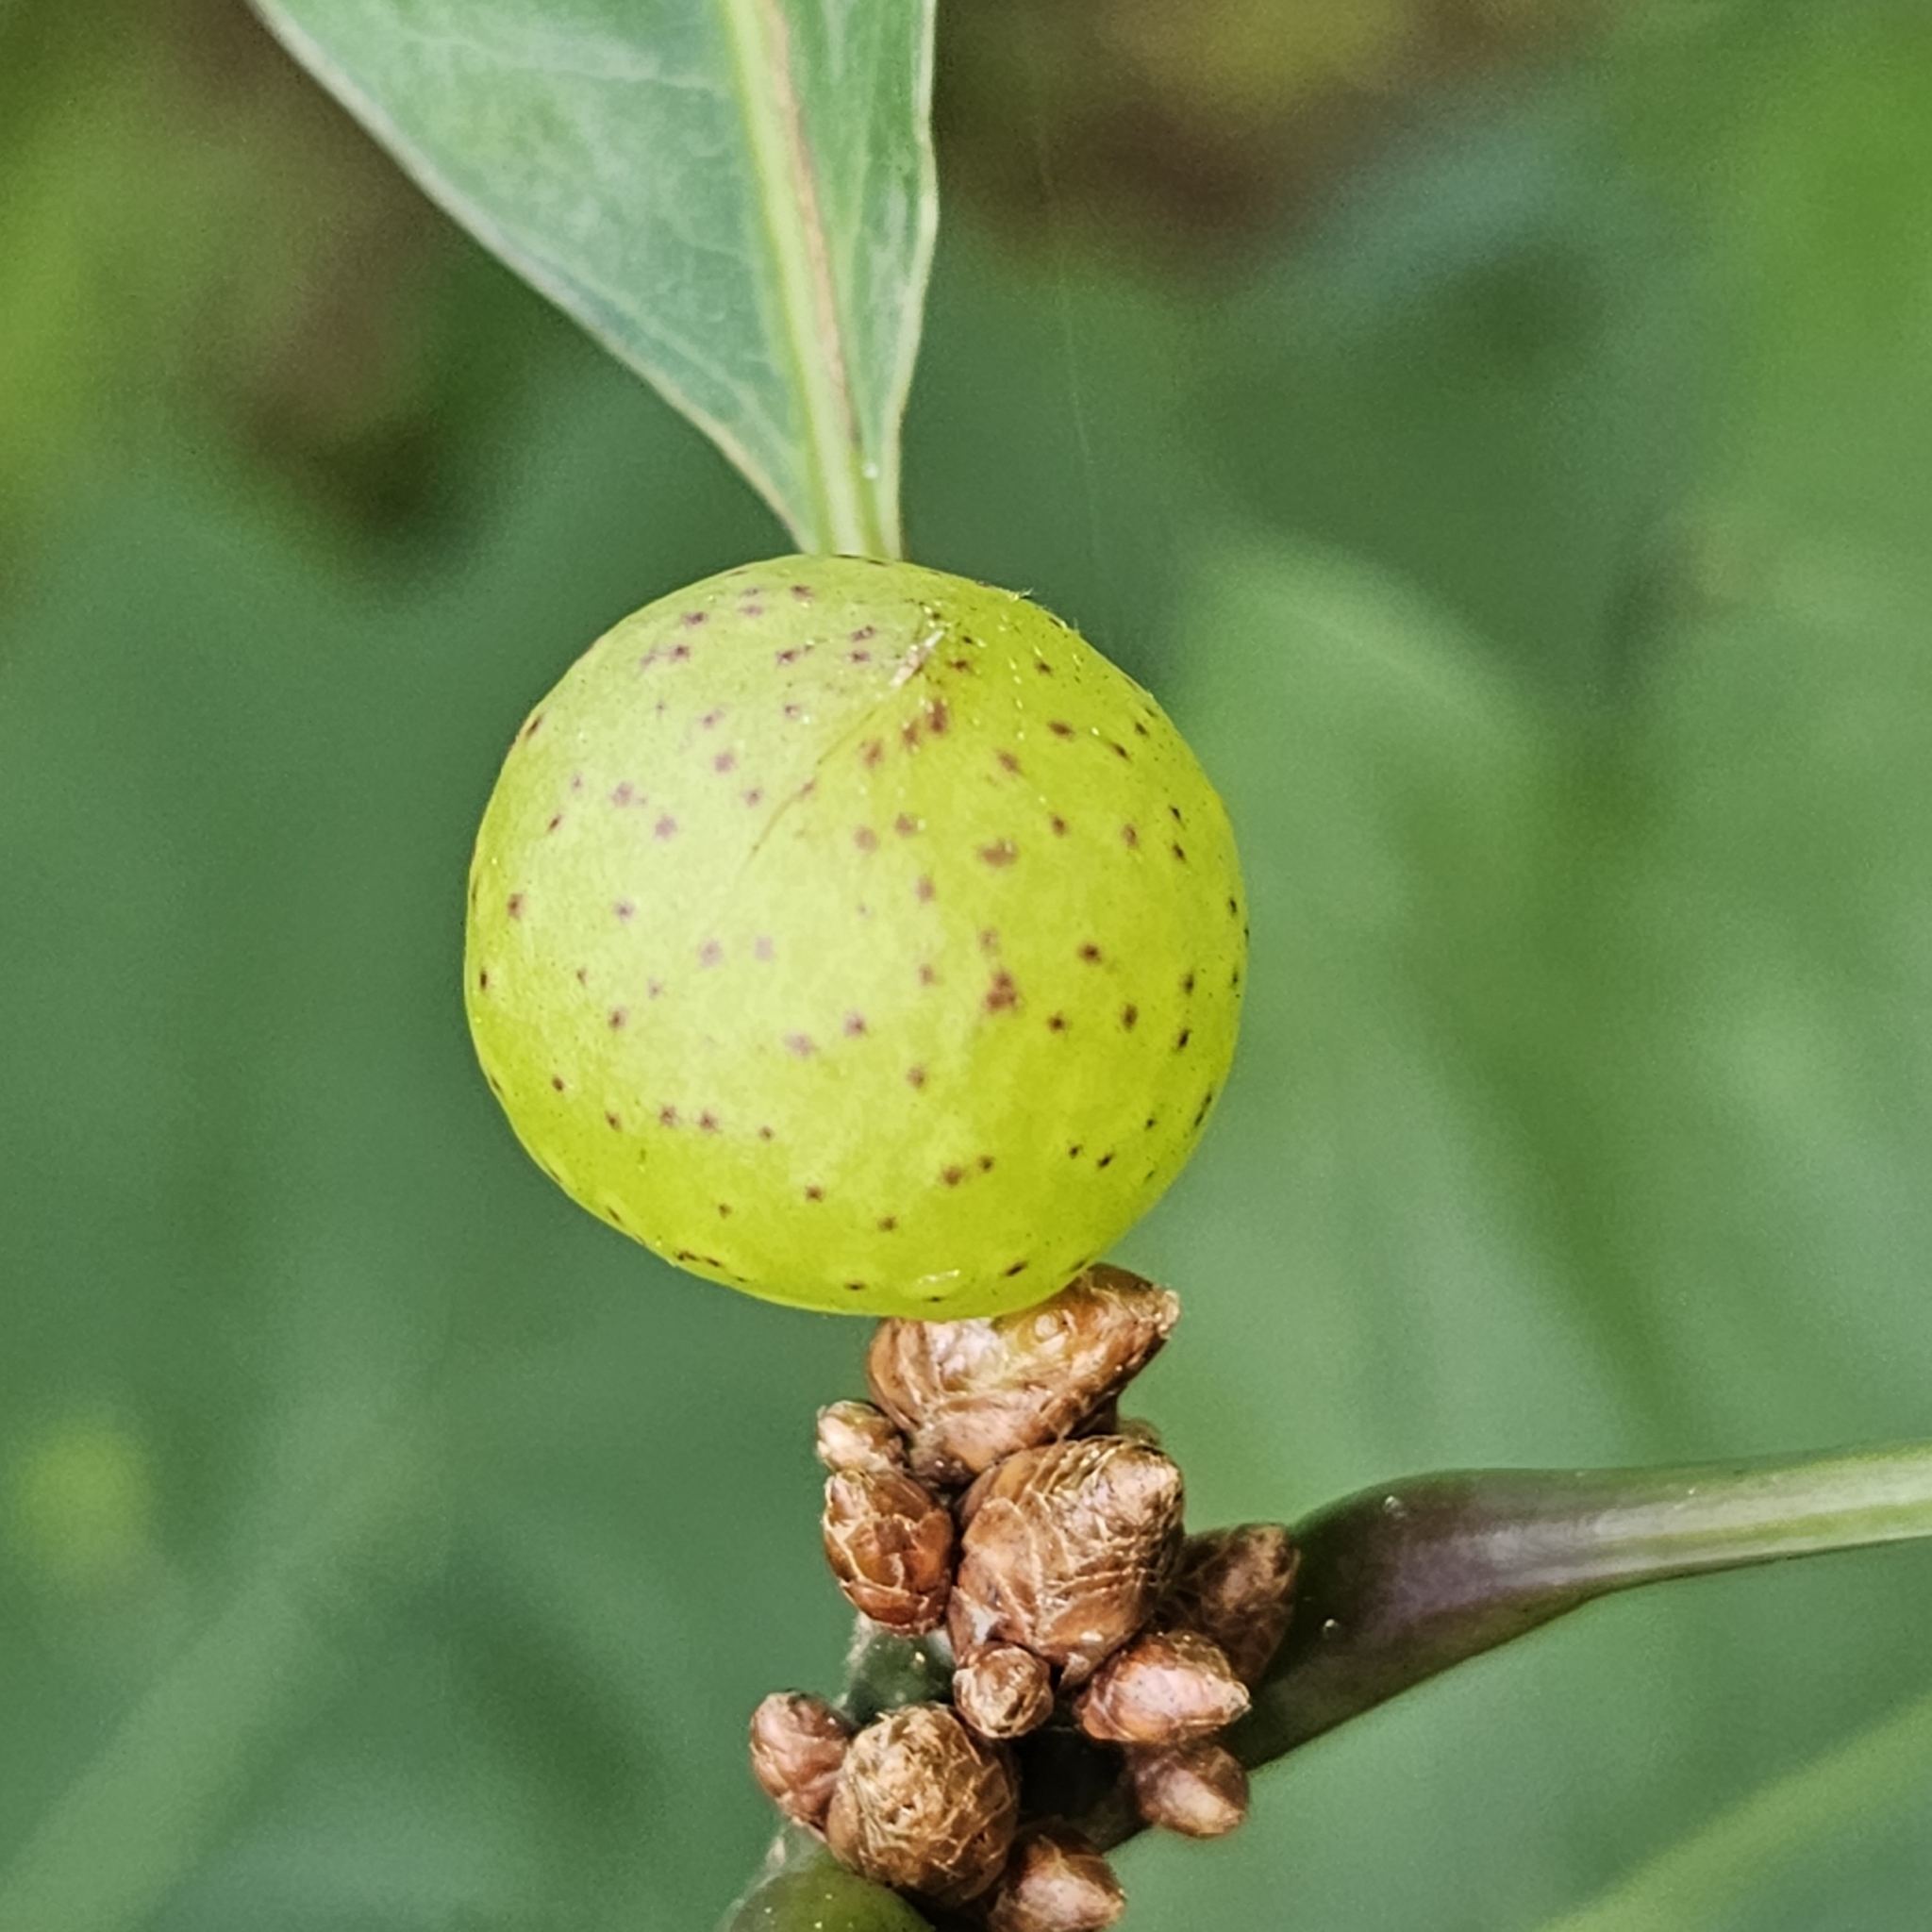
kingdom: Animalia
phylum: Arthropoda
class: Insecta
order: Hymenoptera
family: Cynipidae
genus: Amphibolips
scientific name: Amphibolips
